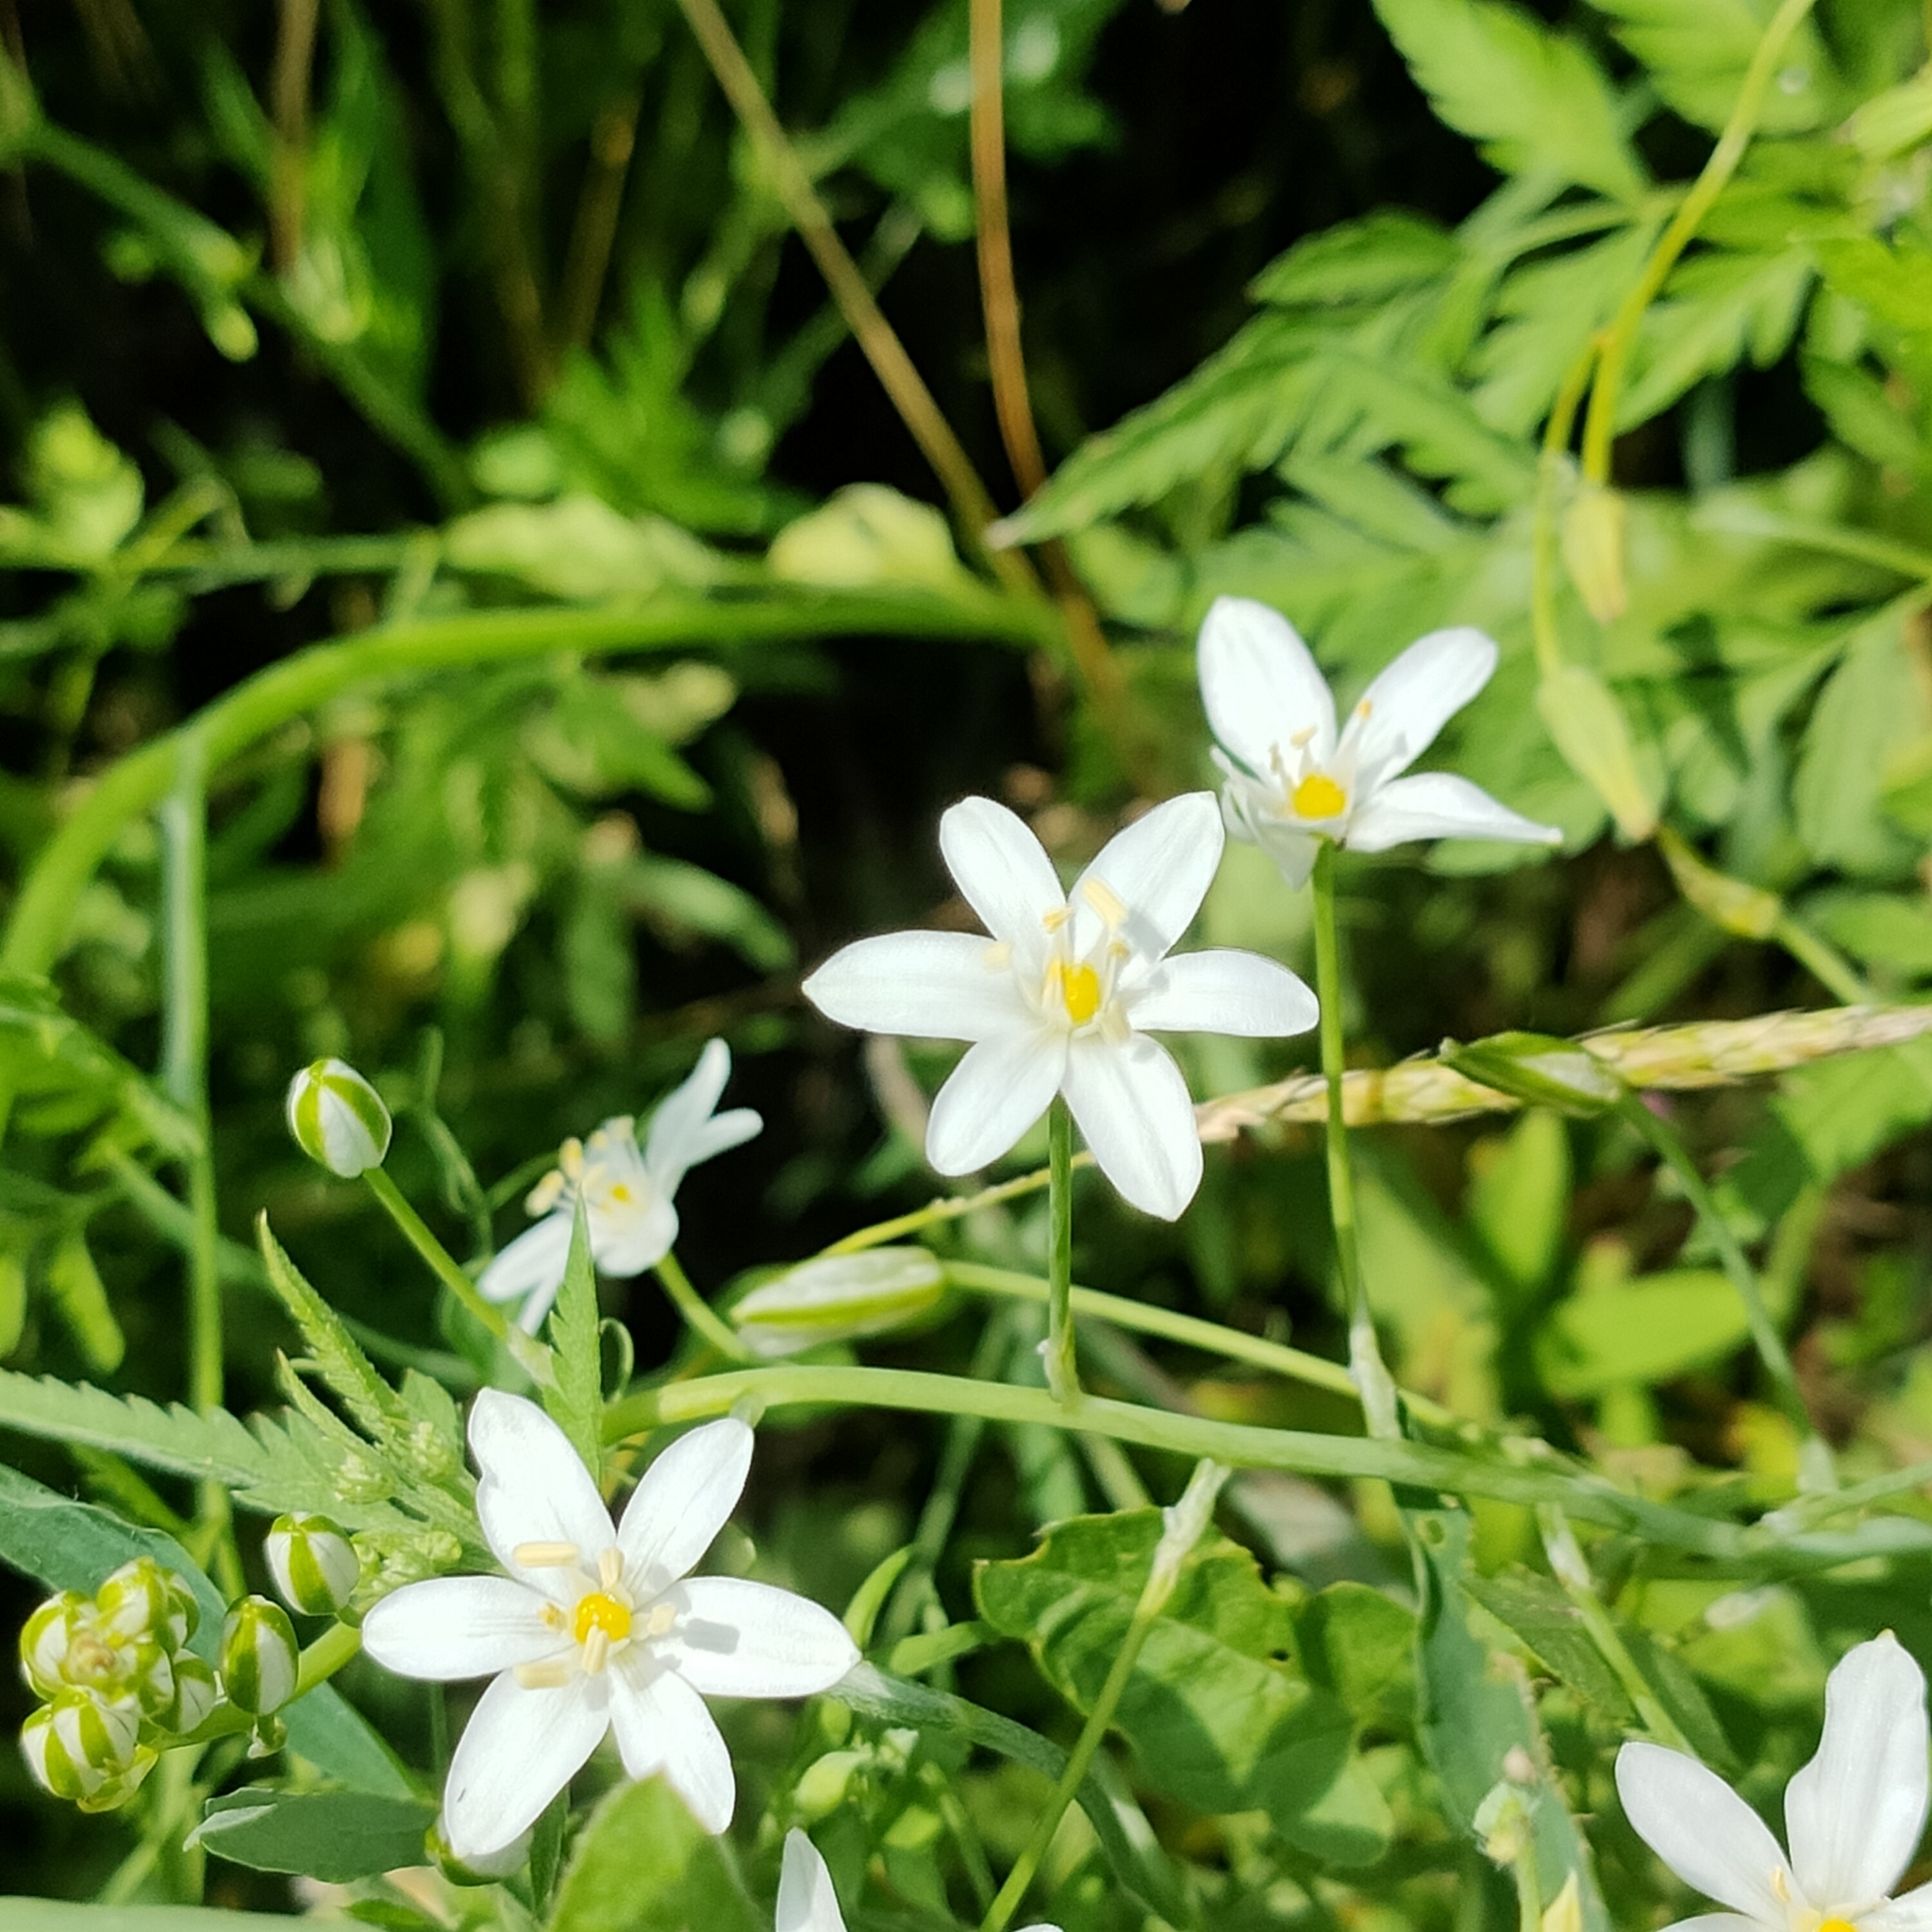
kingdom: Plantae
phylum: Tracheophyta
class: Liliopsida
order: Asparagales
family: Asparagaceae
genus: Ornithogalum
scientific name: Ornithogalum pyramidale
